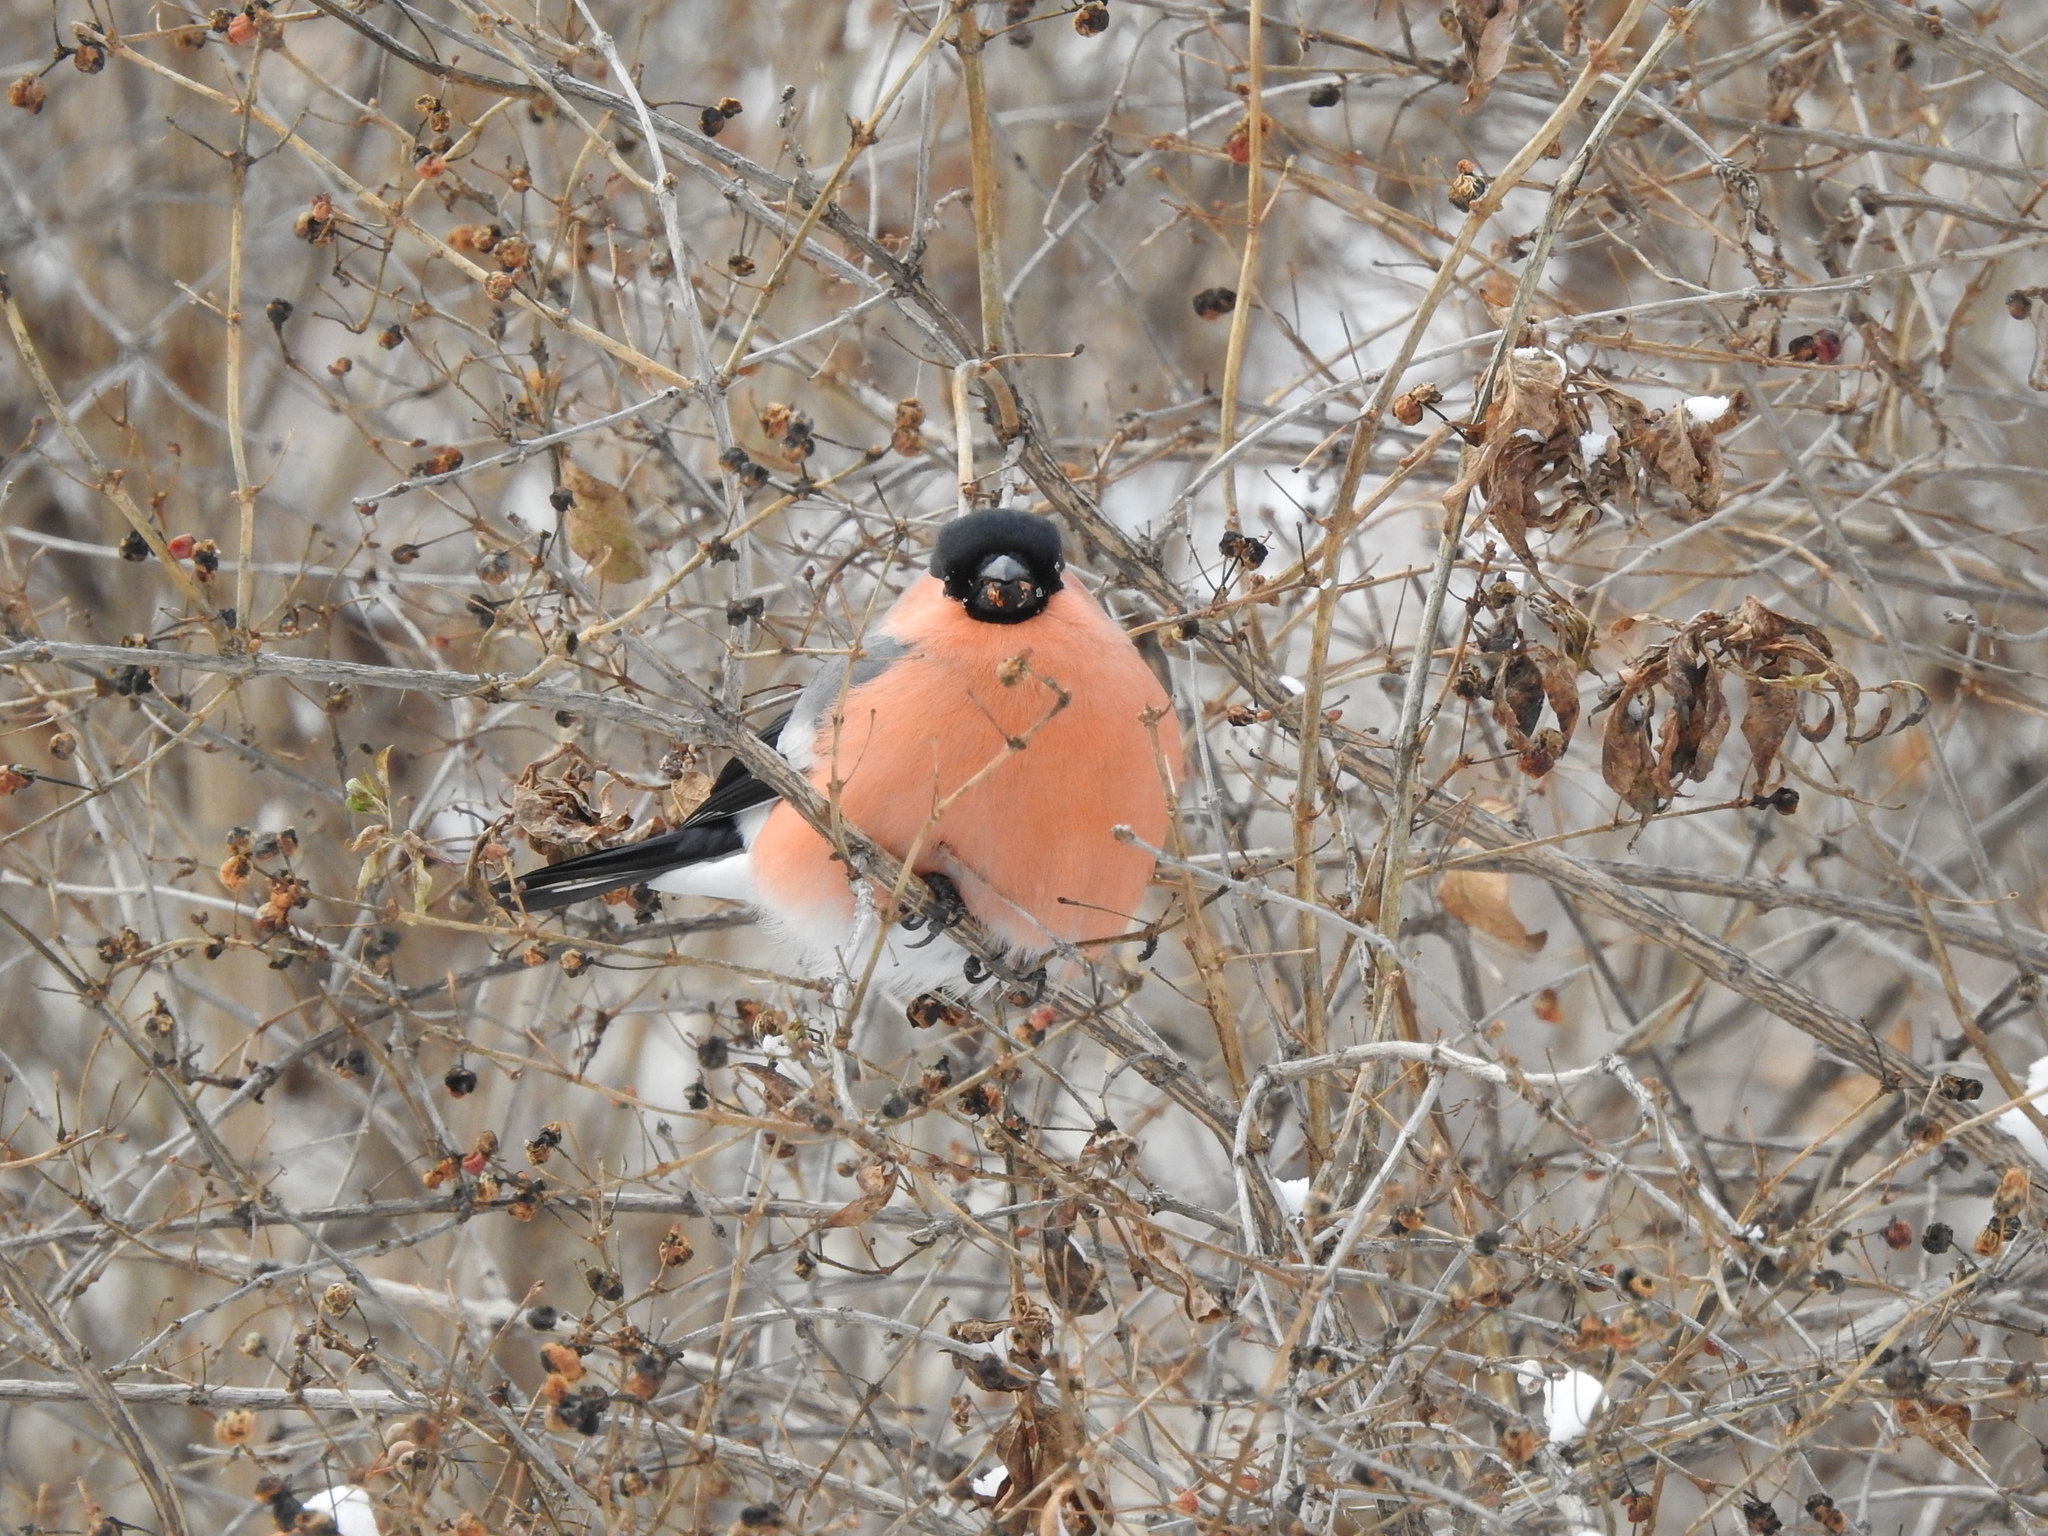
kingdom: Animalia
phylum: Chordata
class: Aves
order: Passeriformes
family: Fringillidae
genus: Pyrrhula
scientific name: Pyrrhula pyrrhula
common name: Eurasian bullfinch
